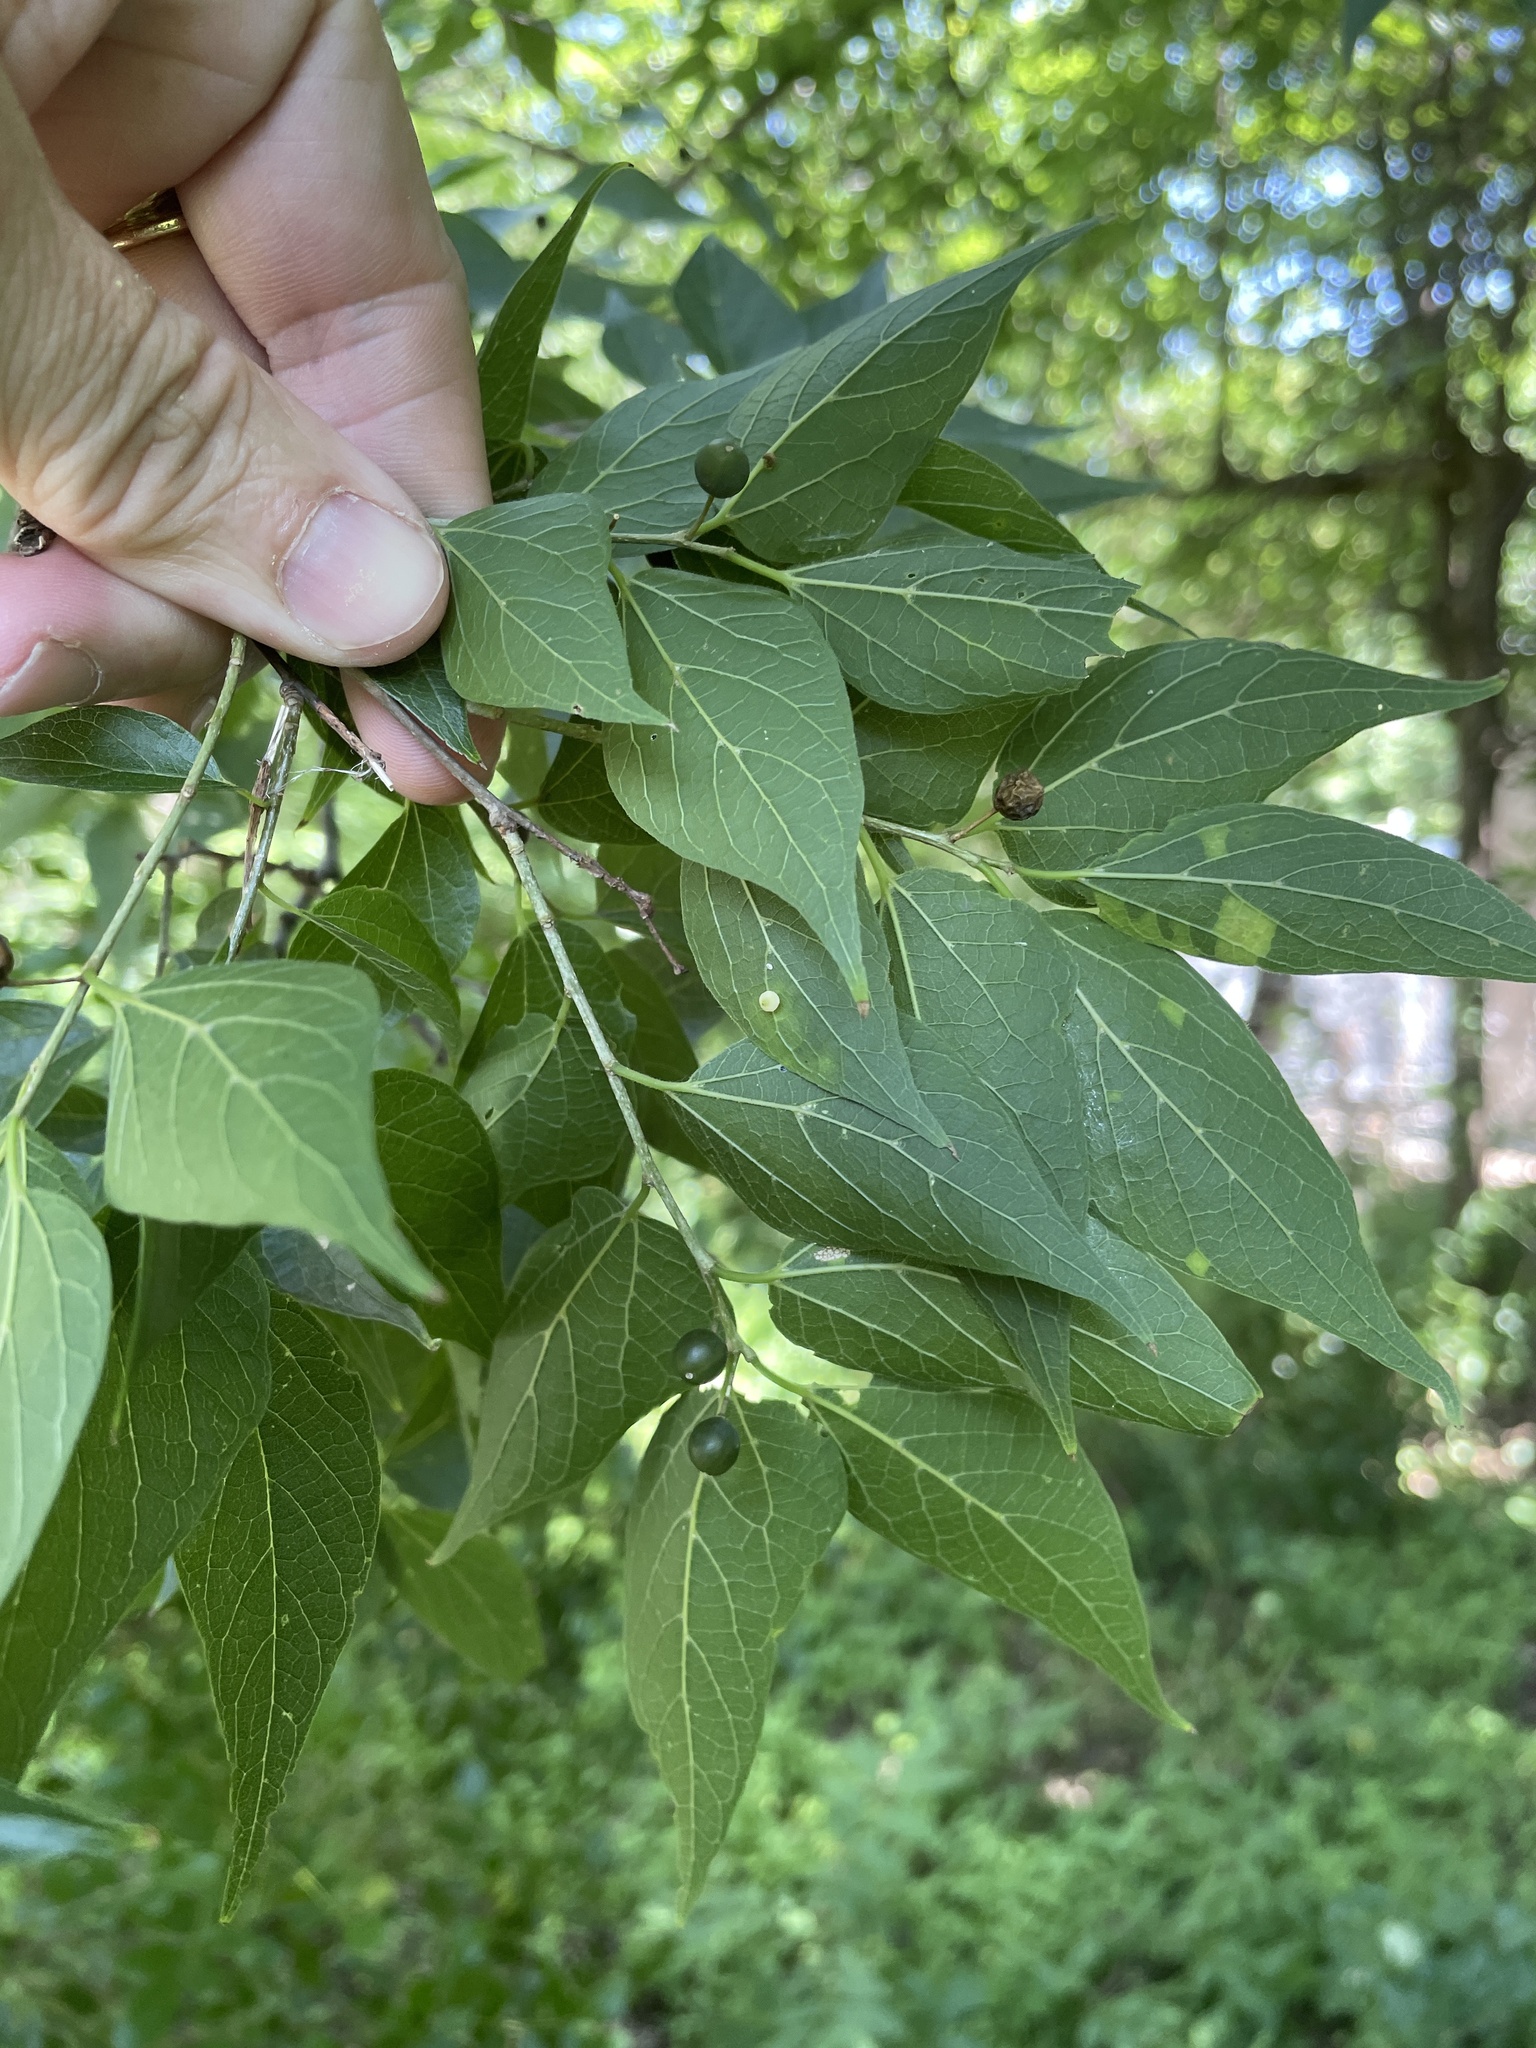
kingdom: Plantae
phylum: Tracheophyta
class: Magnoliopsida
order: Rosales
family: Cannabaceae
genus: Celtis
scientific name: Celtis laevigata
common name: Sugarberry
